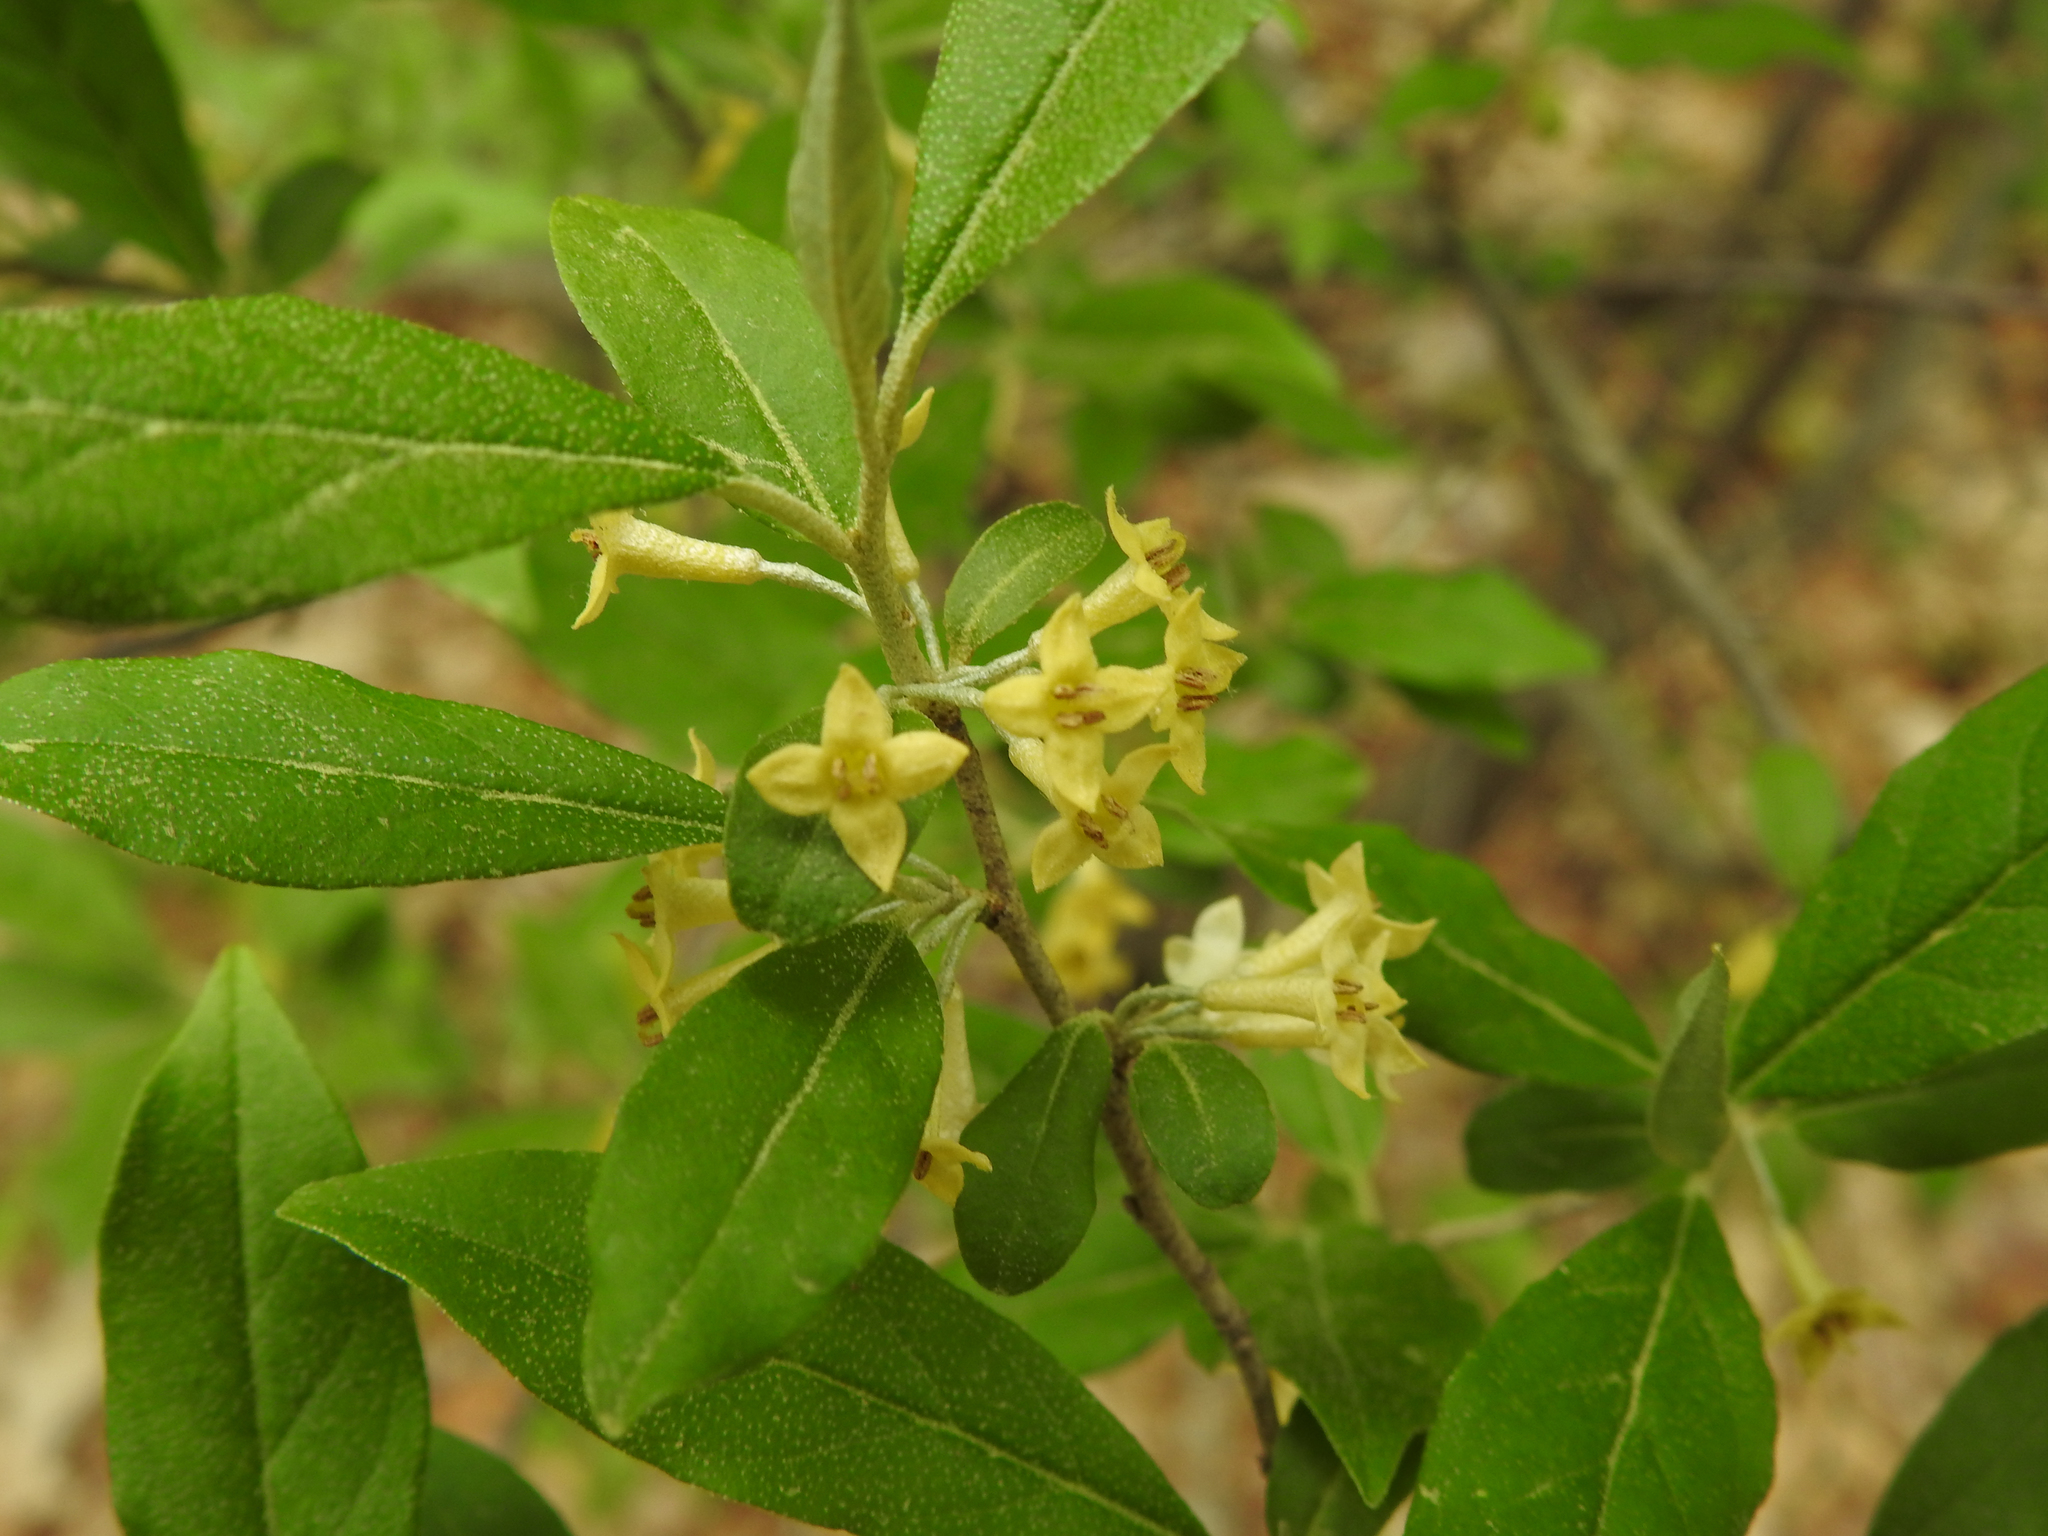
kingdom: Plantae
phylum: Tracheophyta
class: Magnoliopsida
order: Rosales
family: Elaeagnaceae
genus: Elaeagnus
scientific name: Elaeagnus umbellata
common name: Autumn olive
